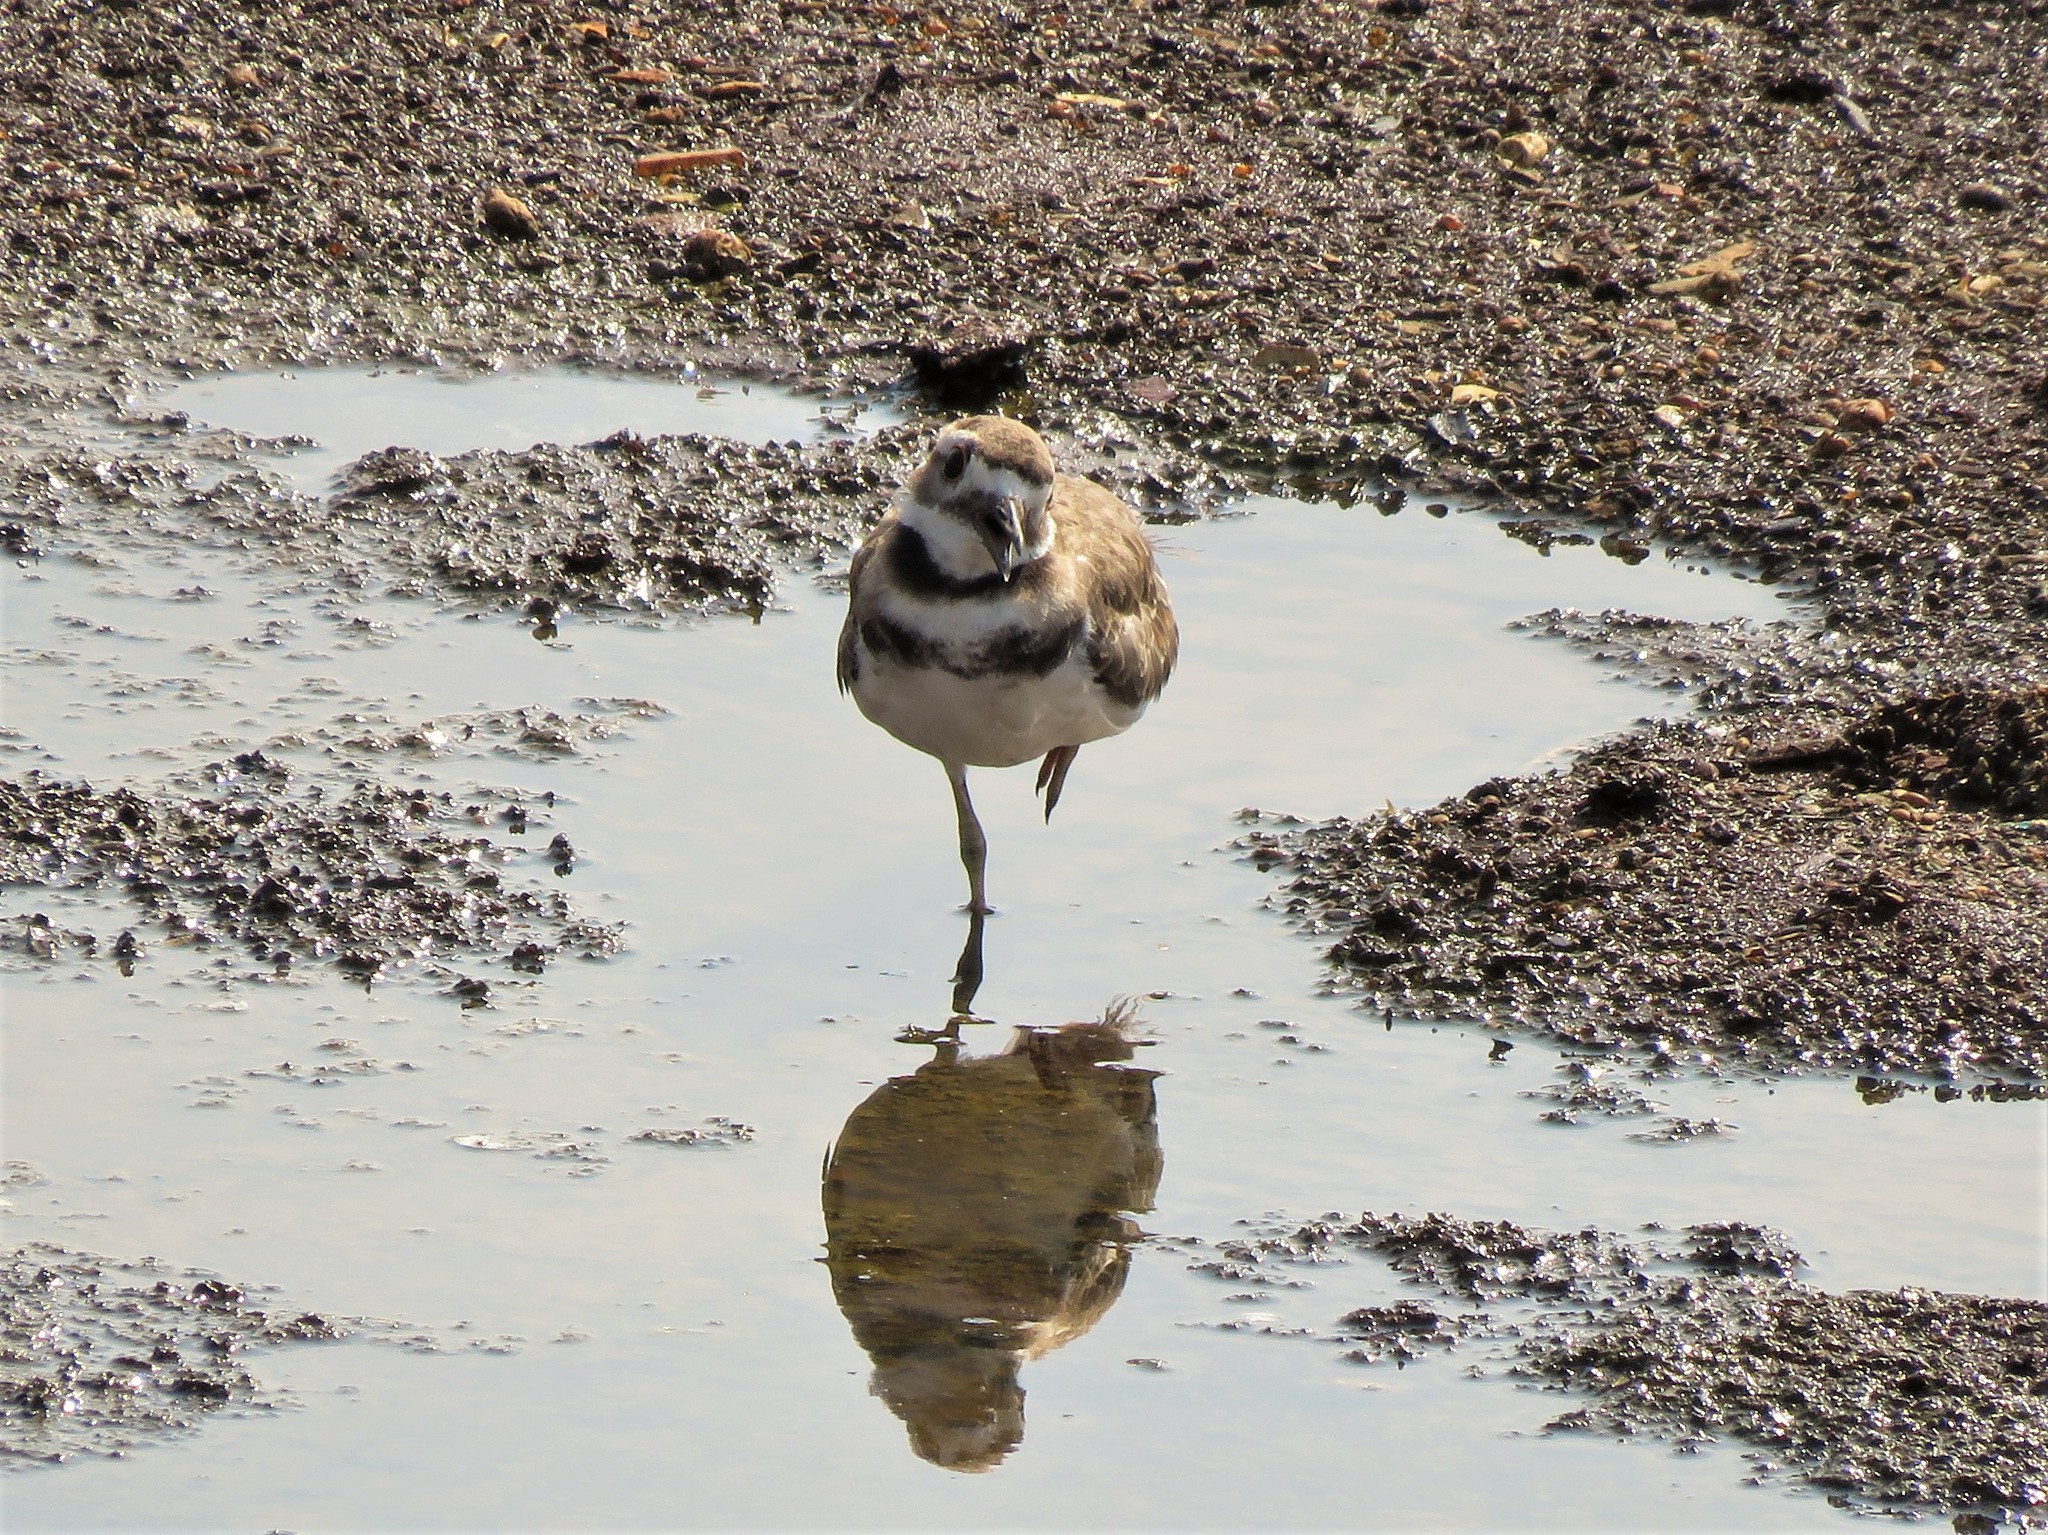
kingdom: Animalia
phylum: Chordata
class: Aves
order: Charadriiformes
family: Charadriidae
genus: Charadrius
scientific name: Charadrius vociferus
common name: Killdeer
